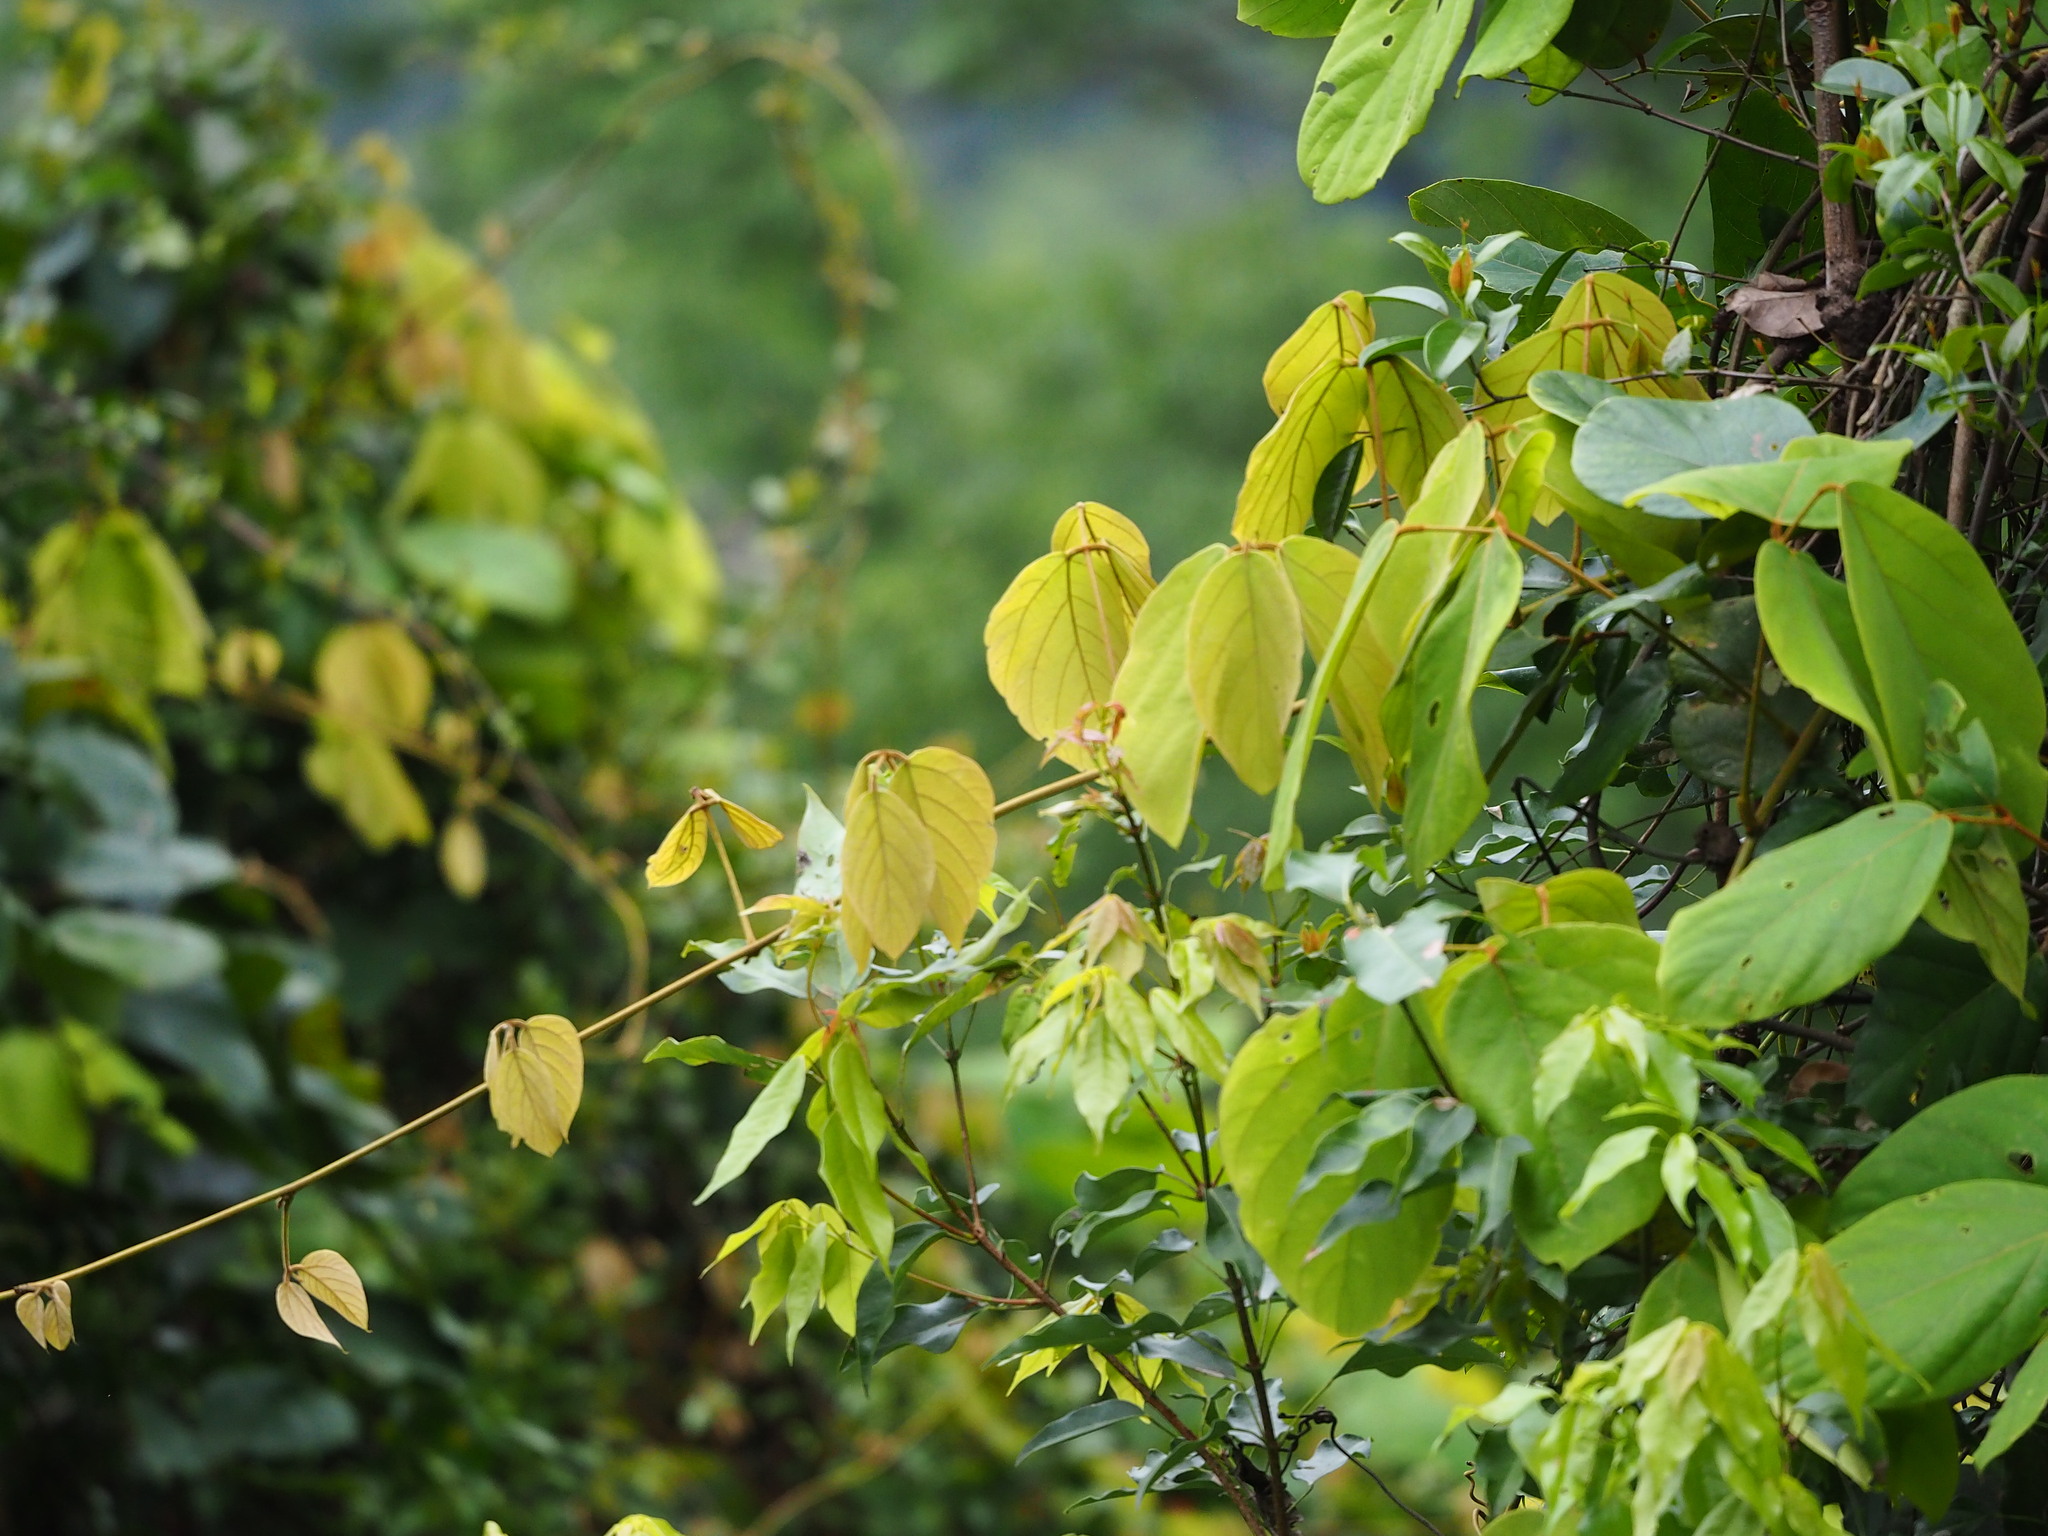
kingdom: Plantae
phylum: Tracheophyta
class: Magnoliopsida
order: Fabales
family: Fabaceae
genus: Mucuna
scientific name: Mucuna macrocarpa
